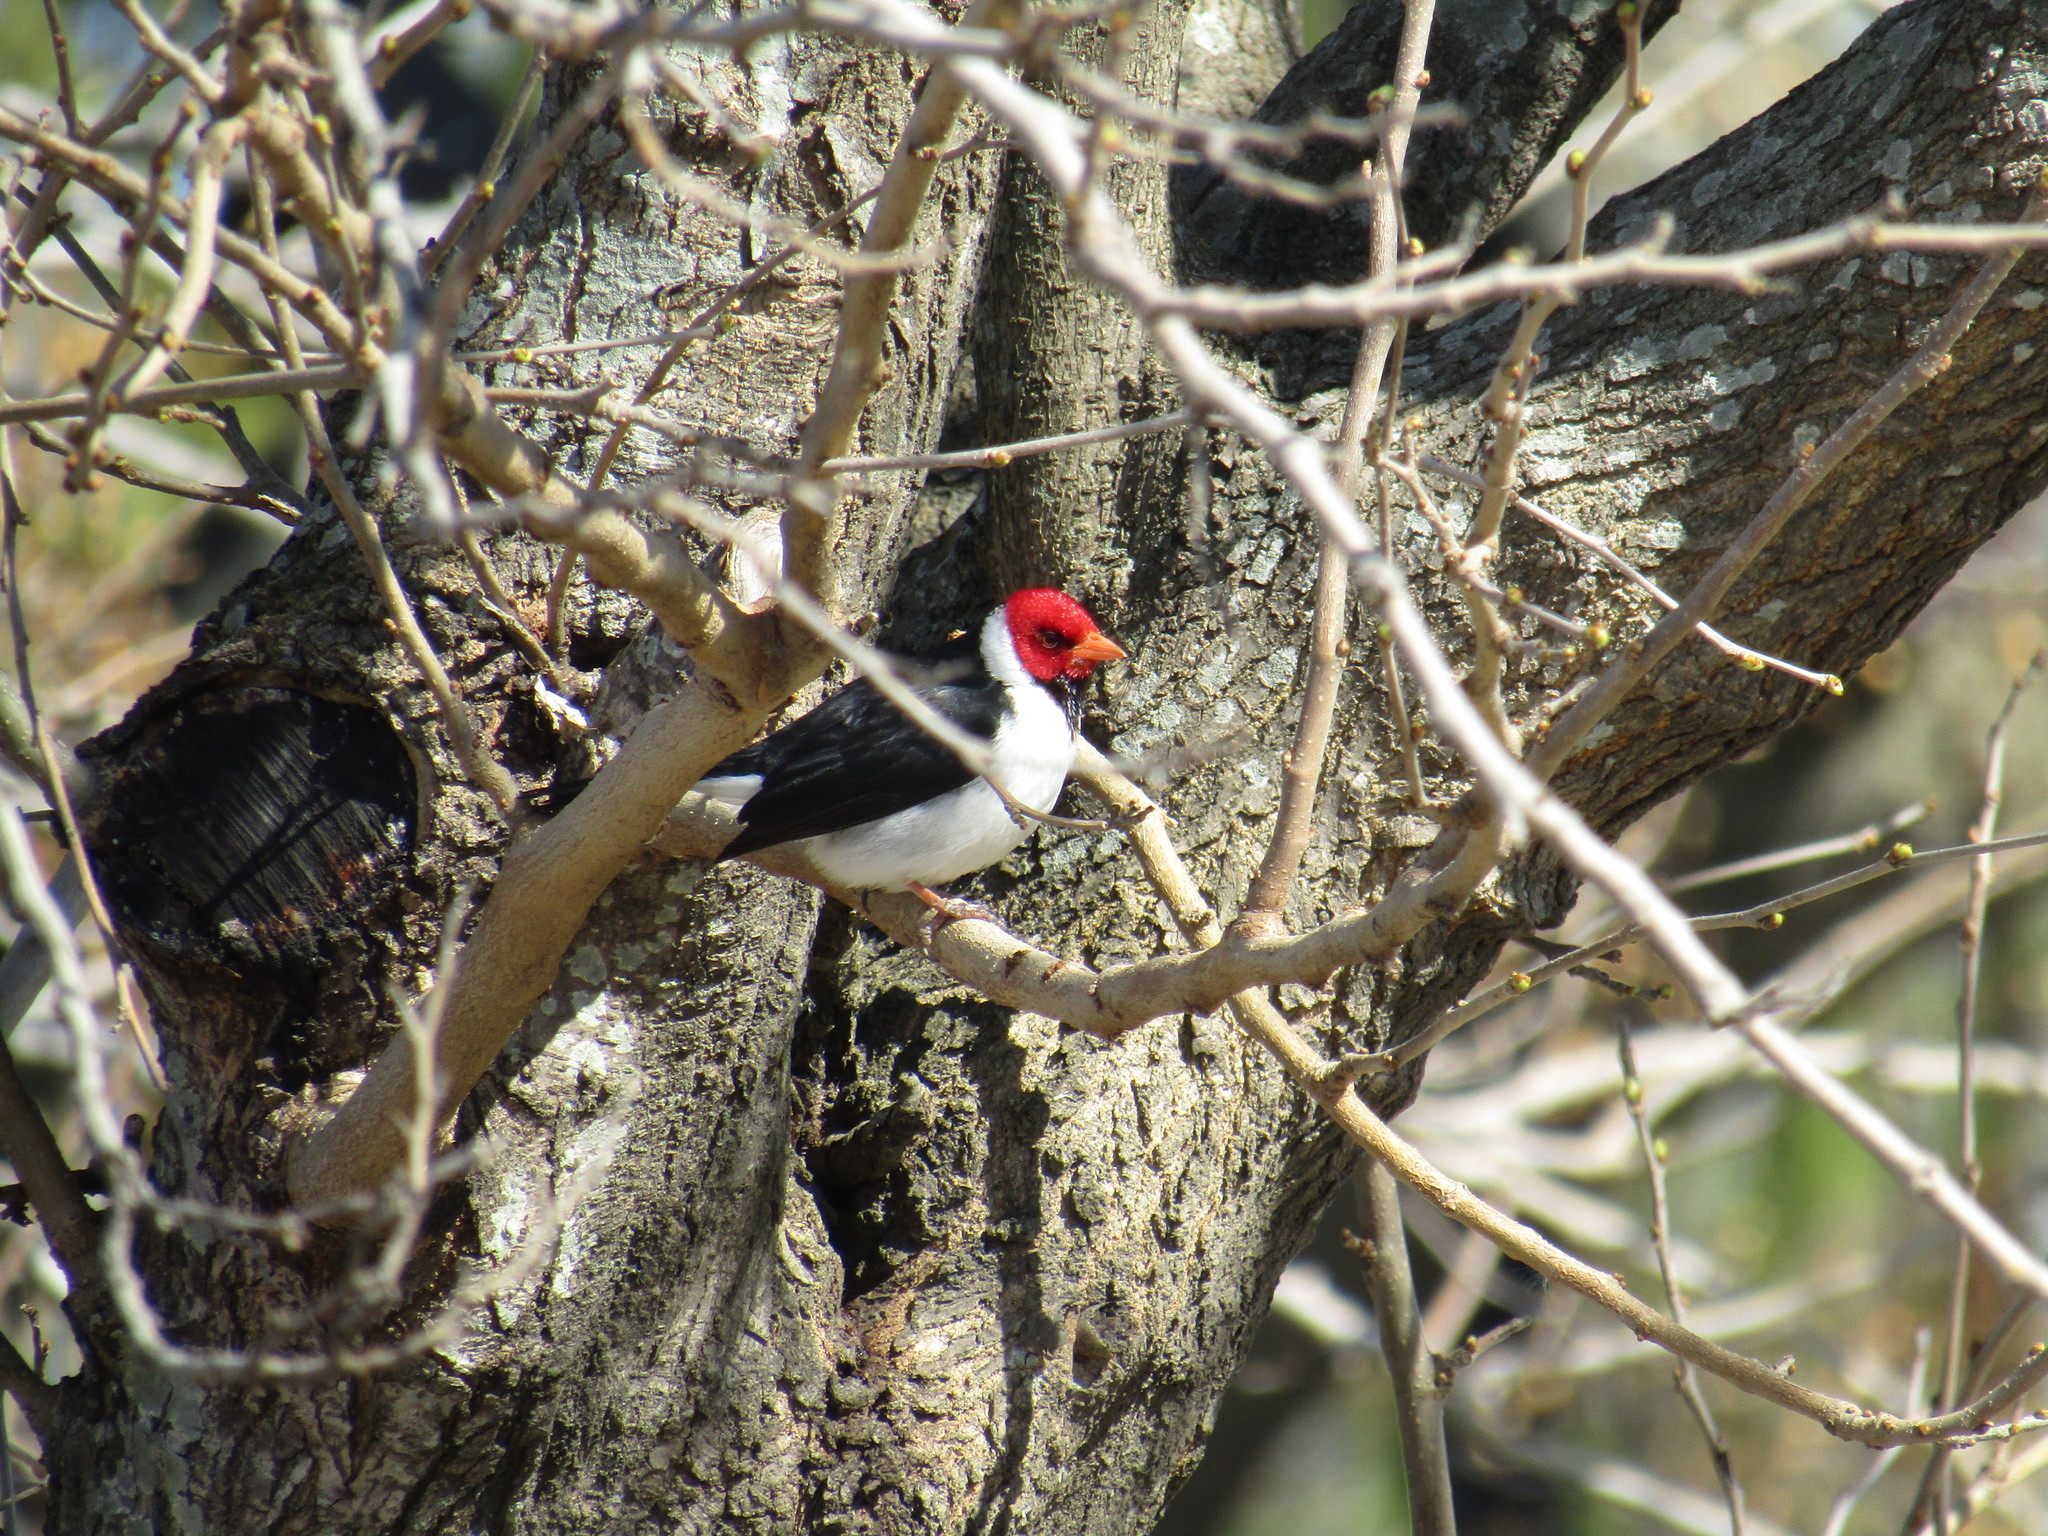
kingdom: Animalia
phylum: Chordata
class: Aves
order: Passeriformes
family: Thraupidae
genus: Paroaria
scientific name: Paroaria capitata
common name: Yellow-billed cardinal
